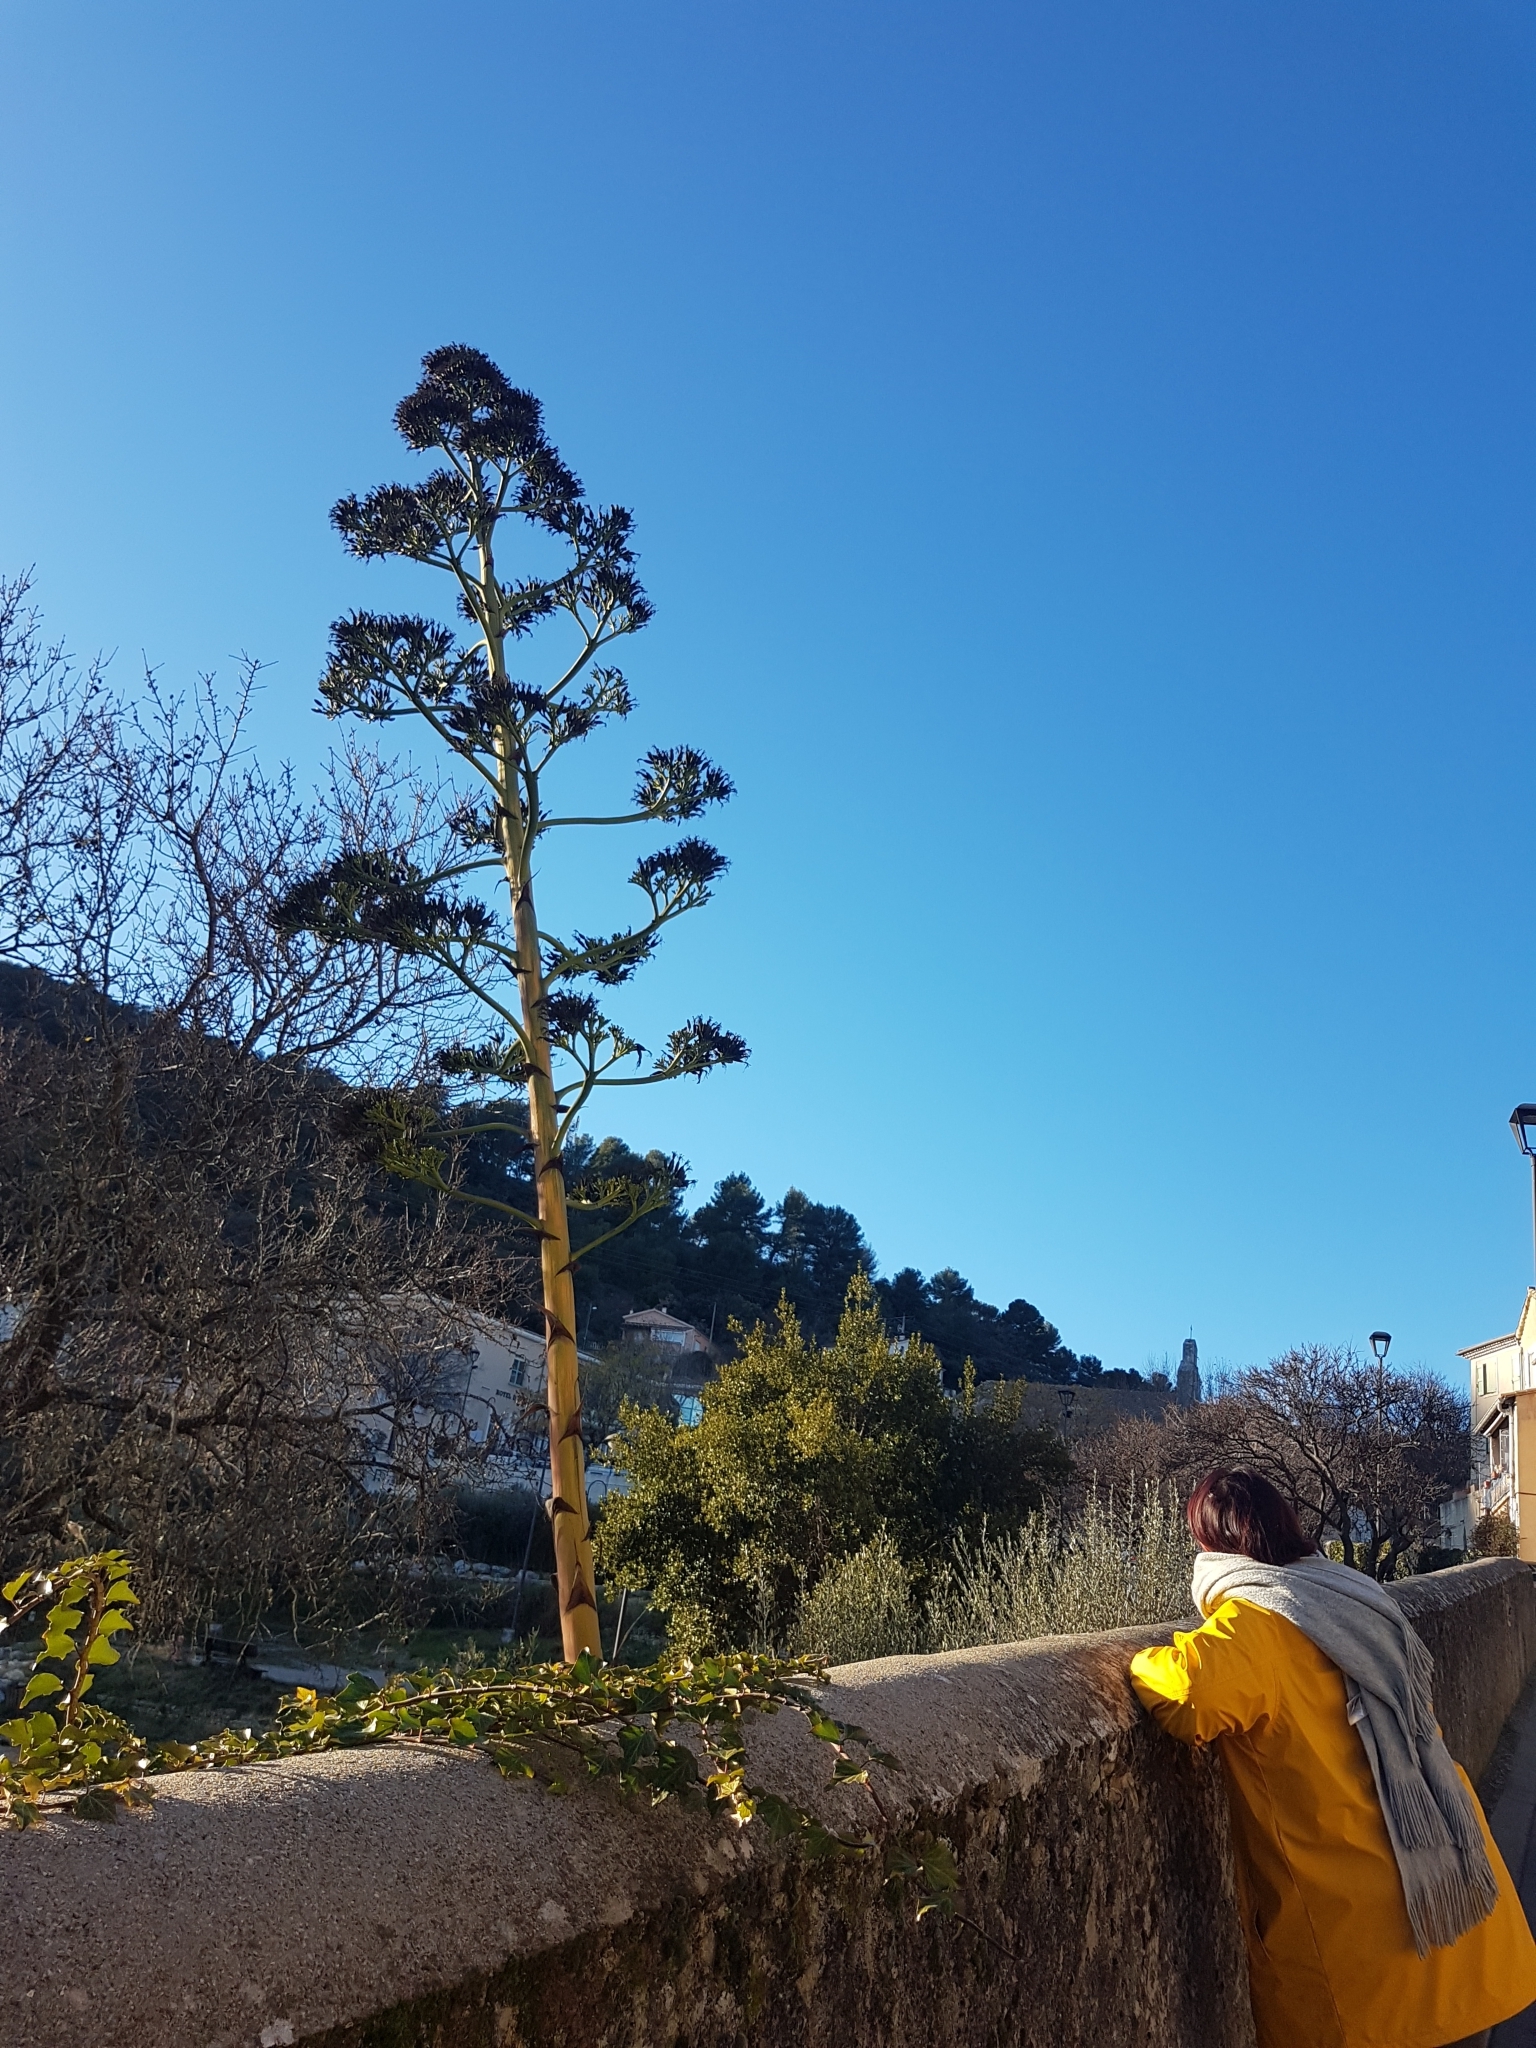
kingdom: Plantae
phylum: Tracheophyta
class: Liliopsida
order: Asparagales
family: Asparagaceae
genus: Agave
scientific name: Agave americana
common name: Centuryplant
